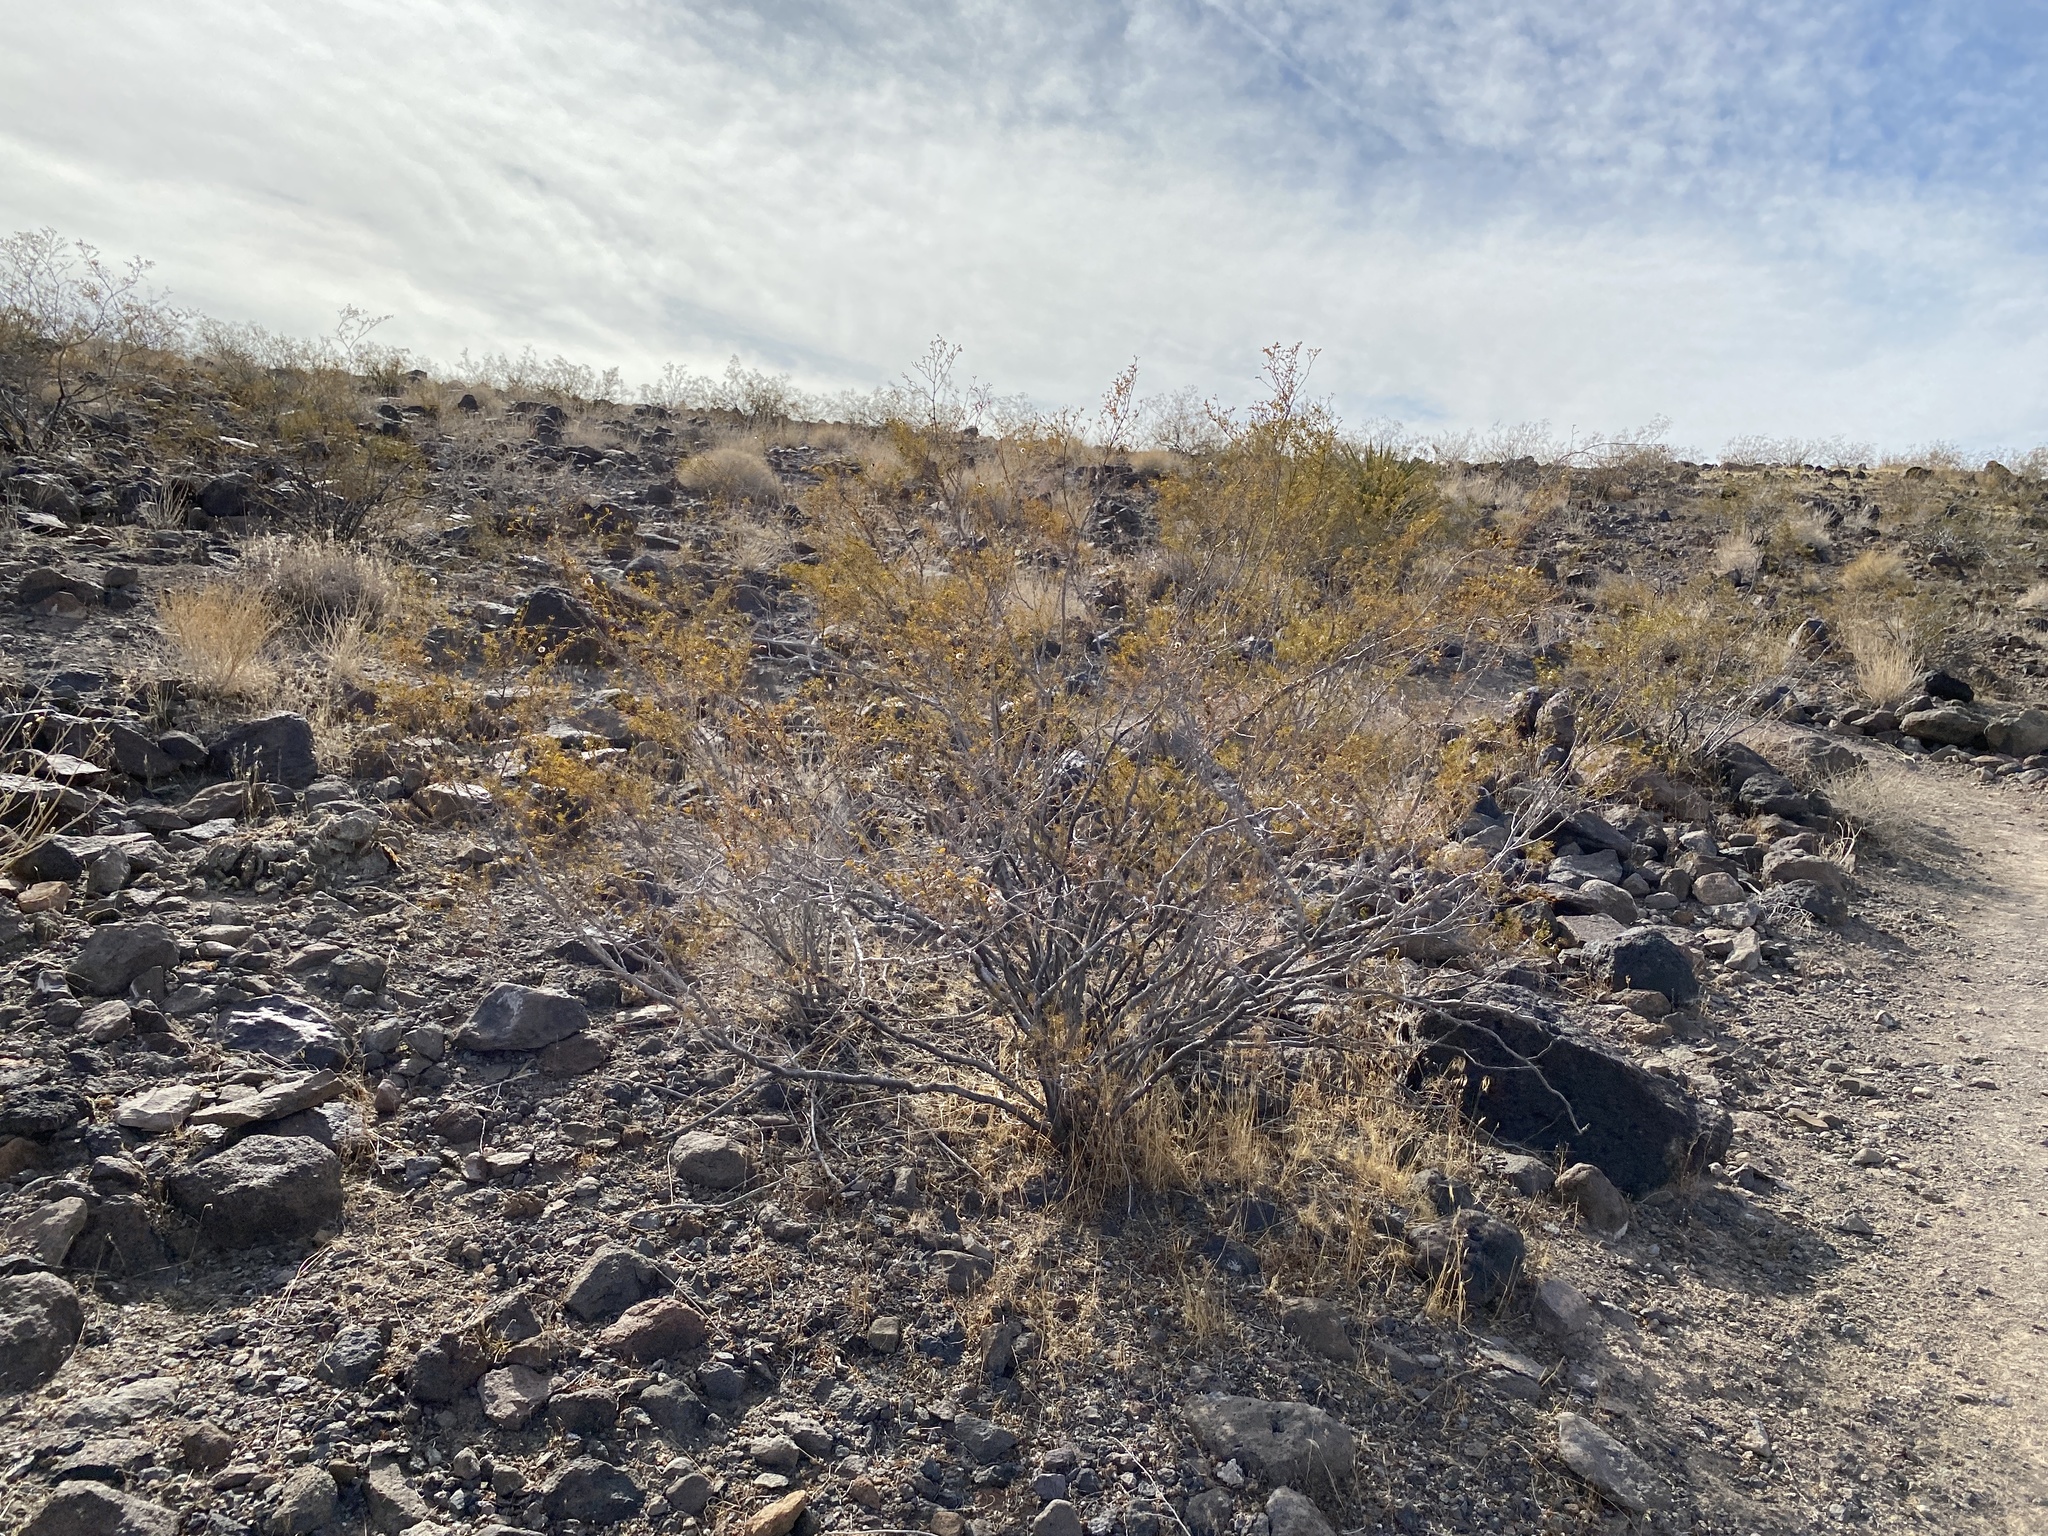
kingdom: Plantae
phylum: Tracheophyta
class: Magnoliopsida
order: Zygophyllales
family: Zygophyllaceae
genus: Larrea
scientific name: Larrea tridentata
